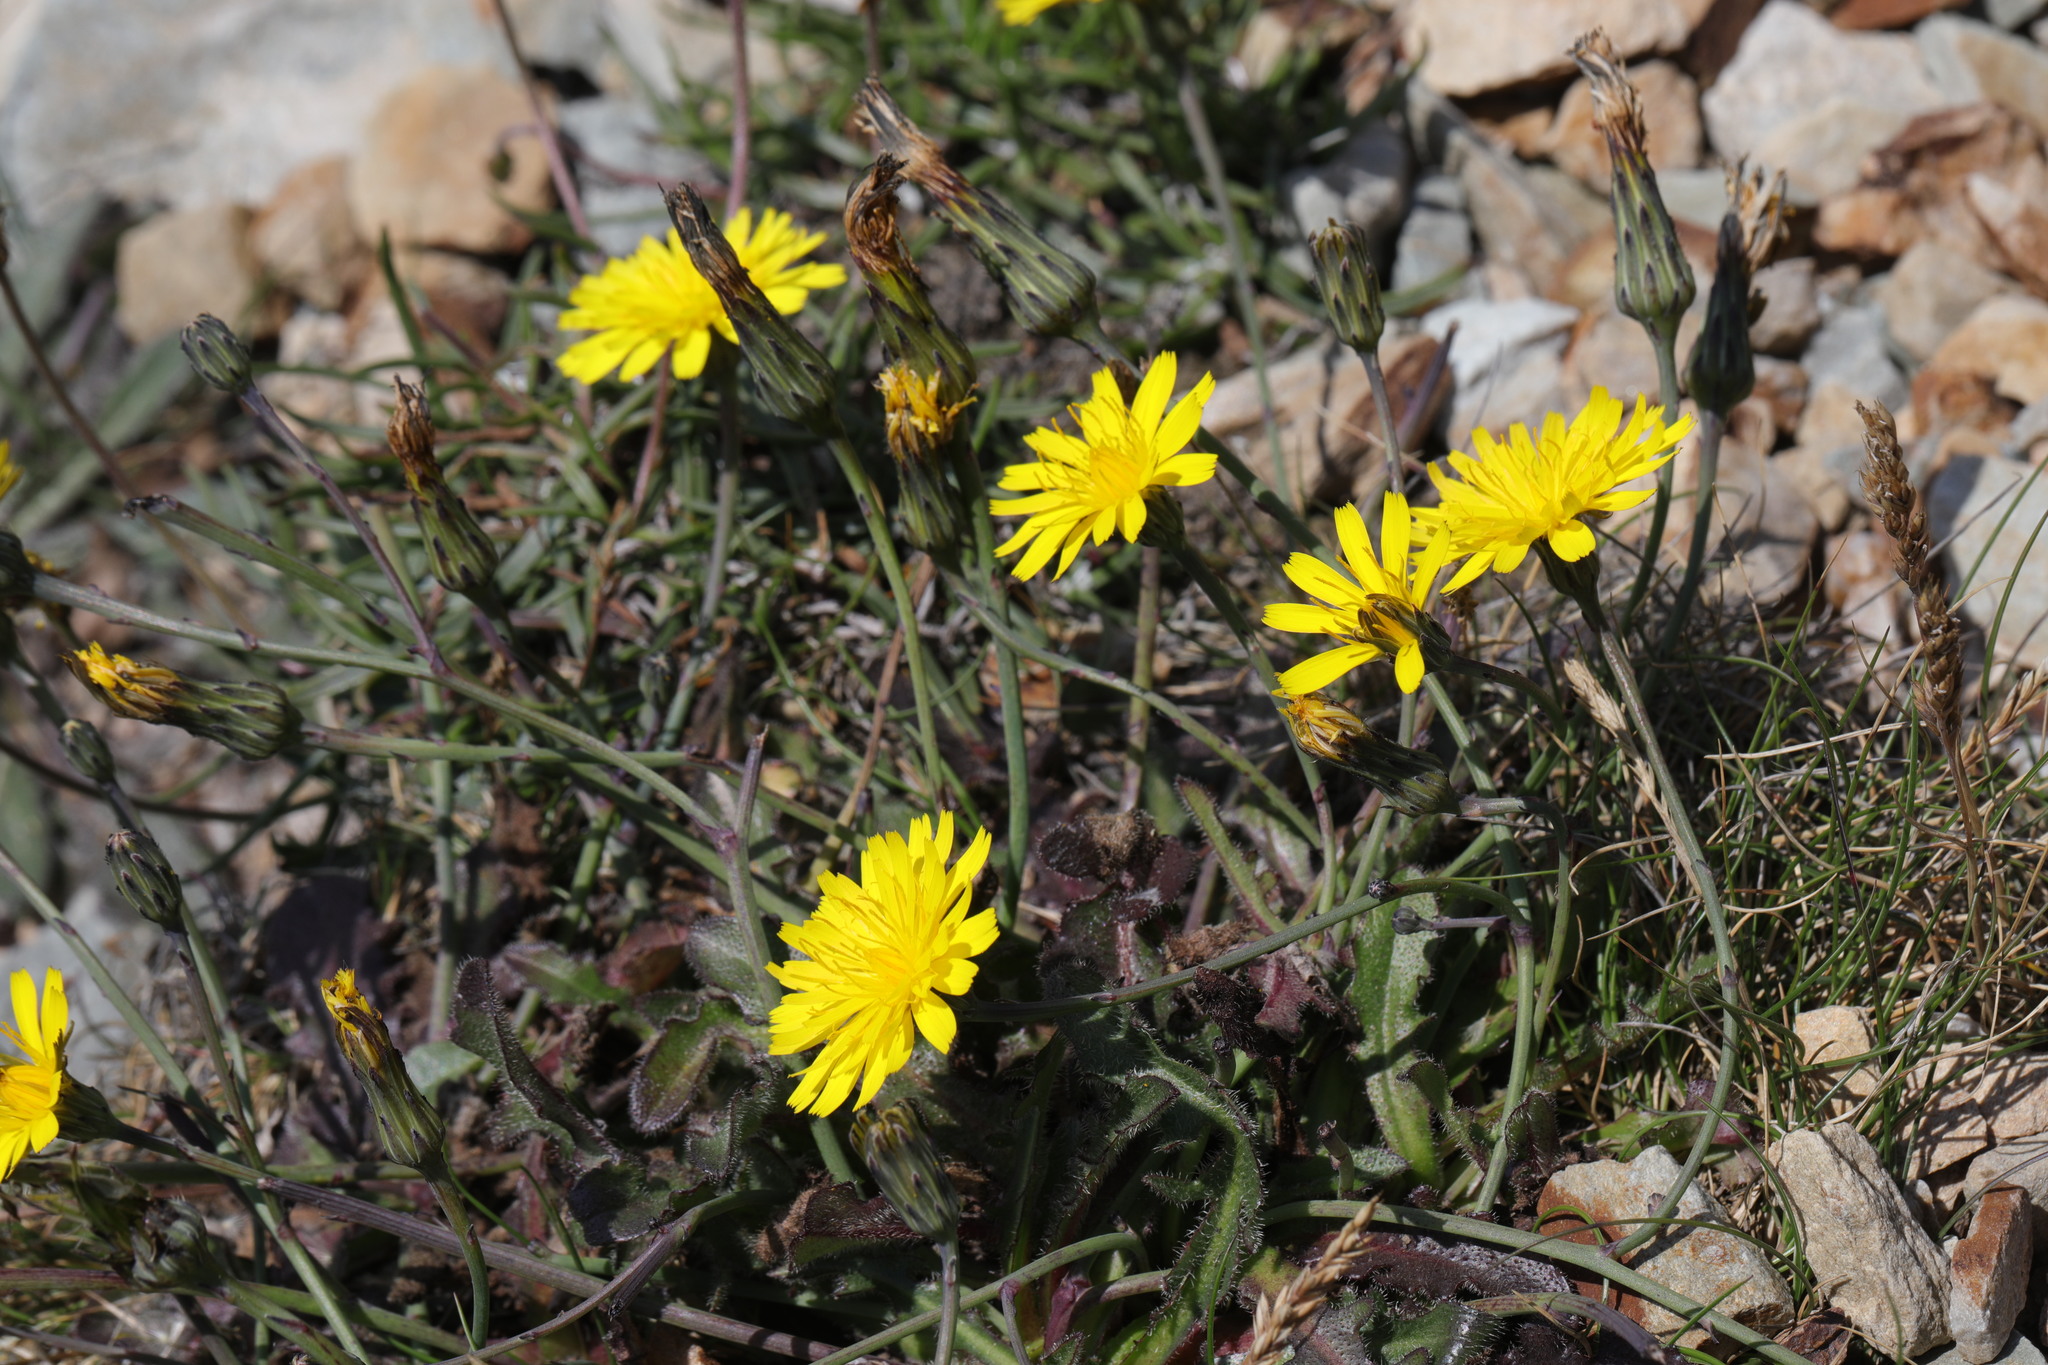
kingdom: Plantae
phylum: Tracheophyta
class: Magnoliopsida
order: Asterales
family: Asteraceae
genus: Hypochaeris
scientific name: Hypochaeris radicata
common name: Flatweed
